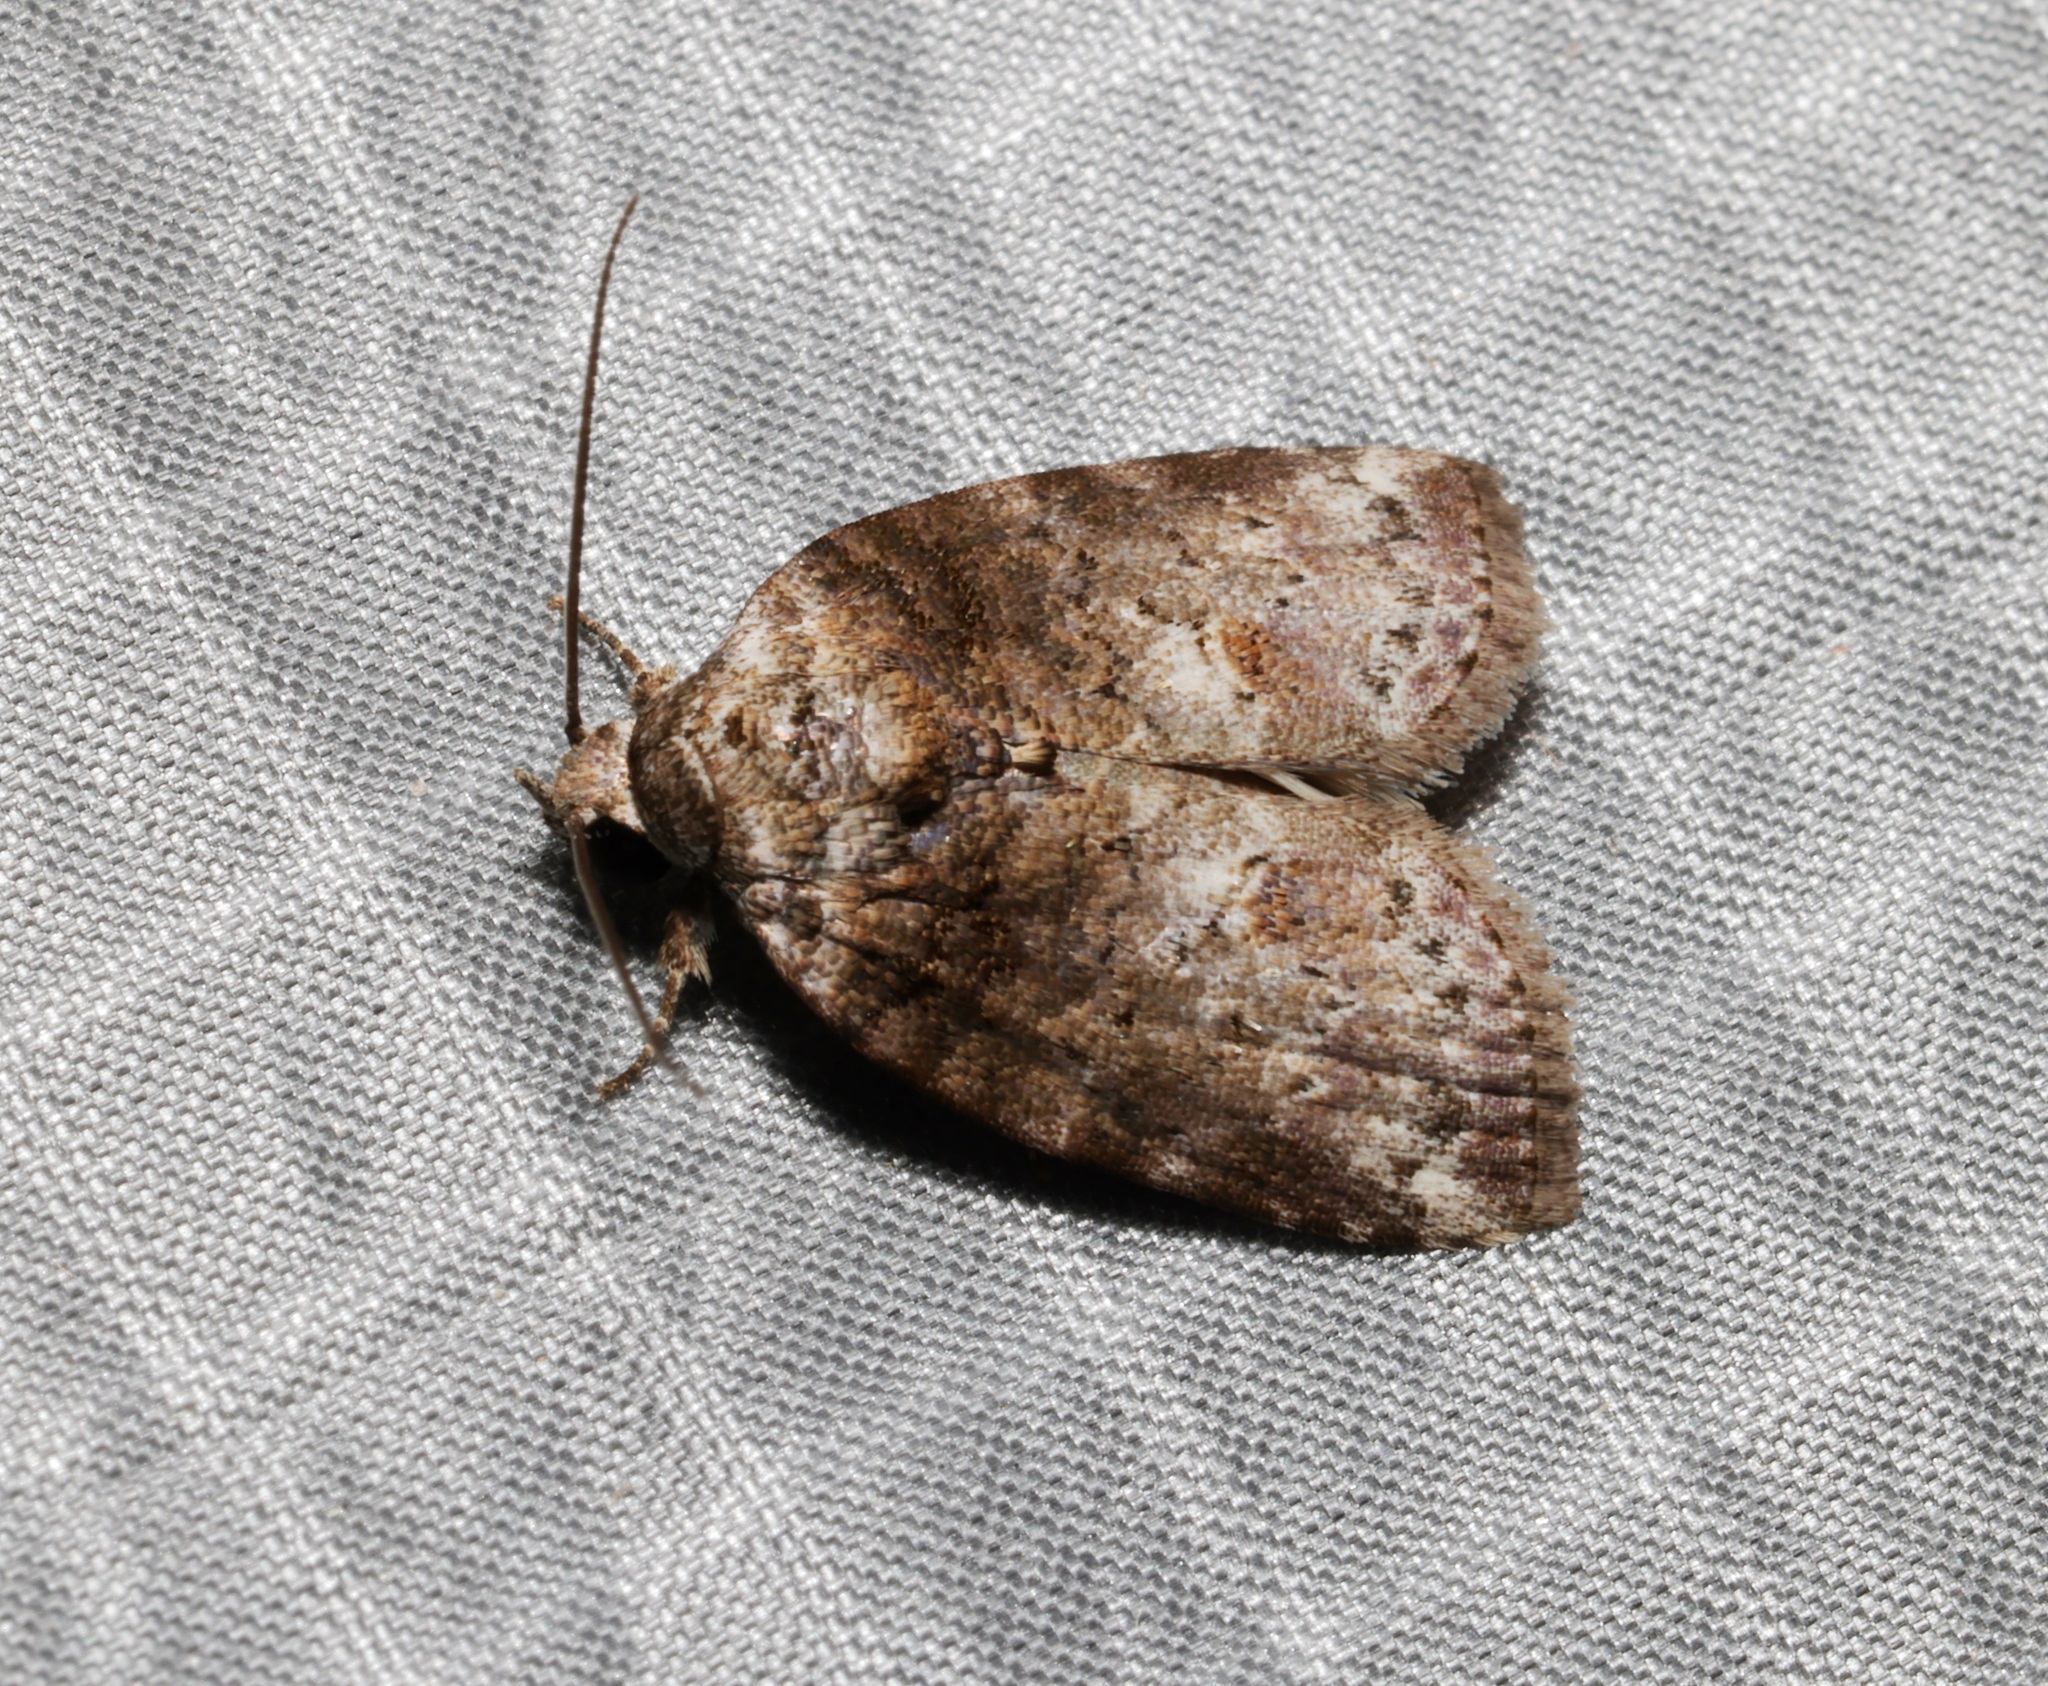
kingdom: Animalia
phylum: Arthropoda
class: Insecta
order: Lepidoptera
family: Nolidae
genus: Garella
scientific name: Garella ruficirra
